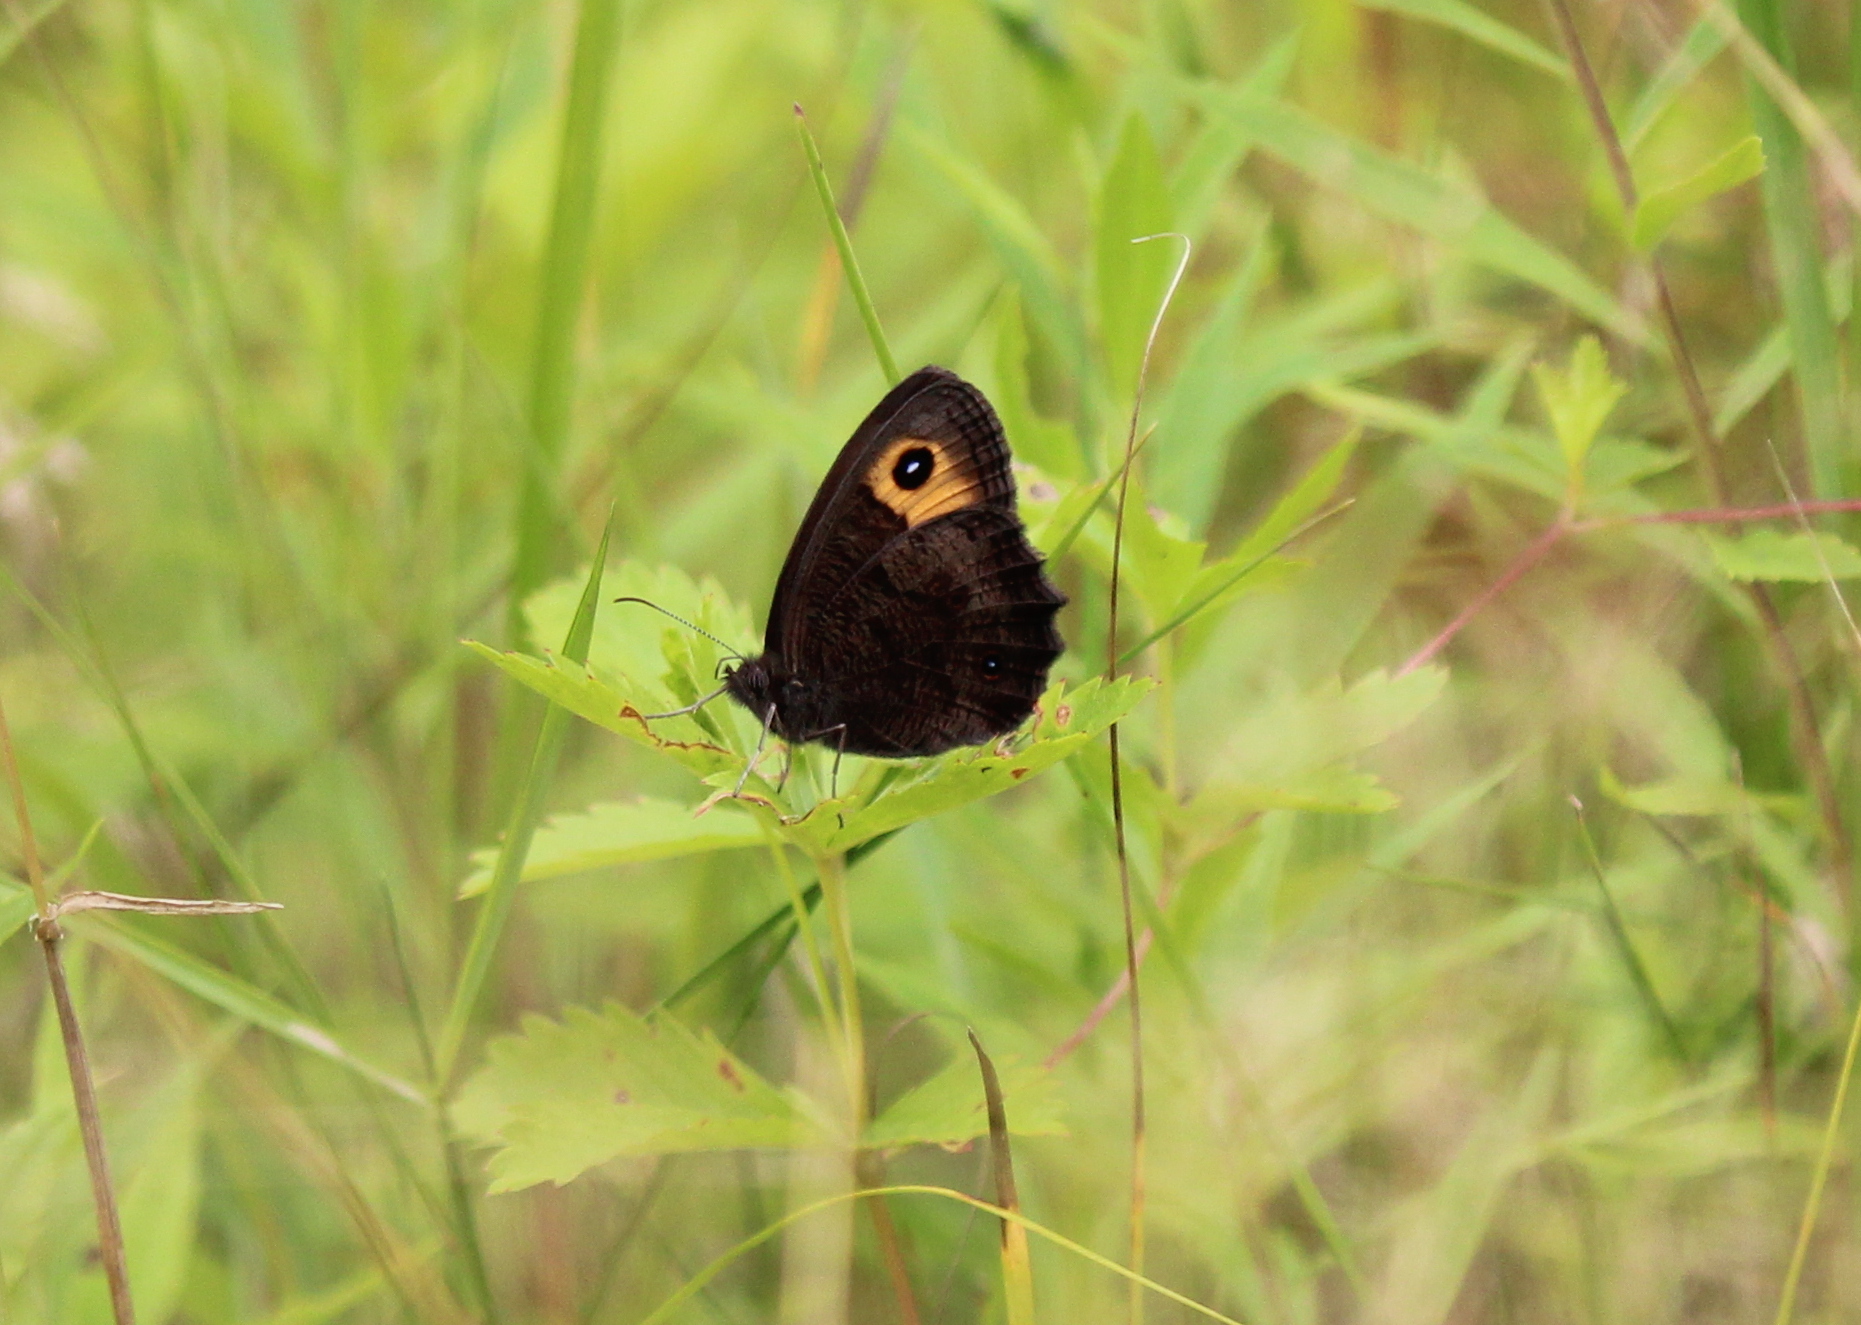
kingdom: Animalia
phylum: Arthropoda
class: Insecta
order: Lepidoptera
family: Nymphalidae
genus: Cercyonis
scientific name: Cercyonis pegala
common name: Common wood-nymph
